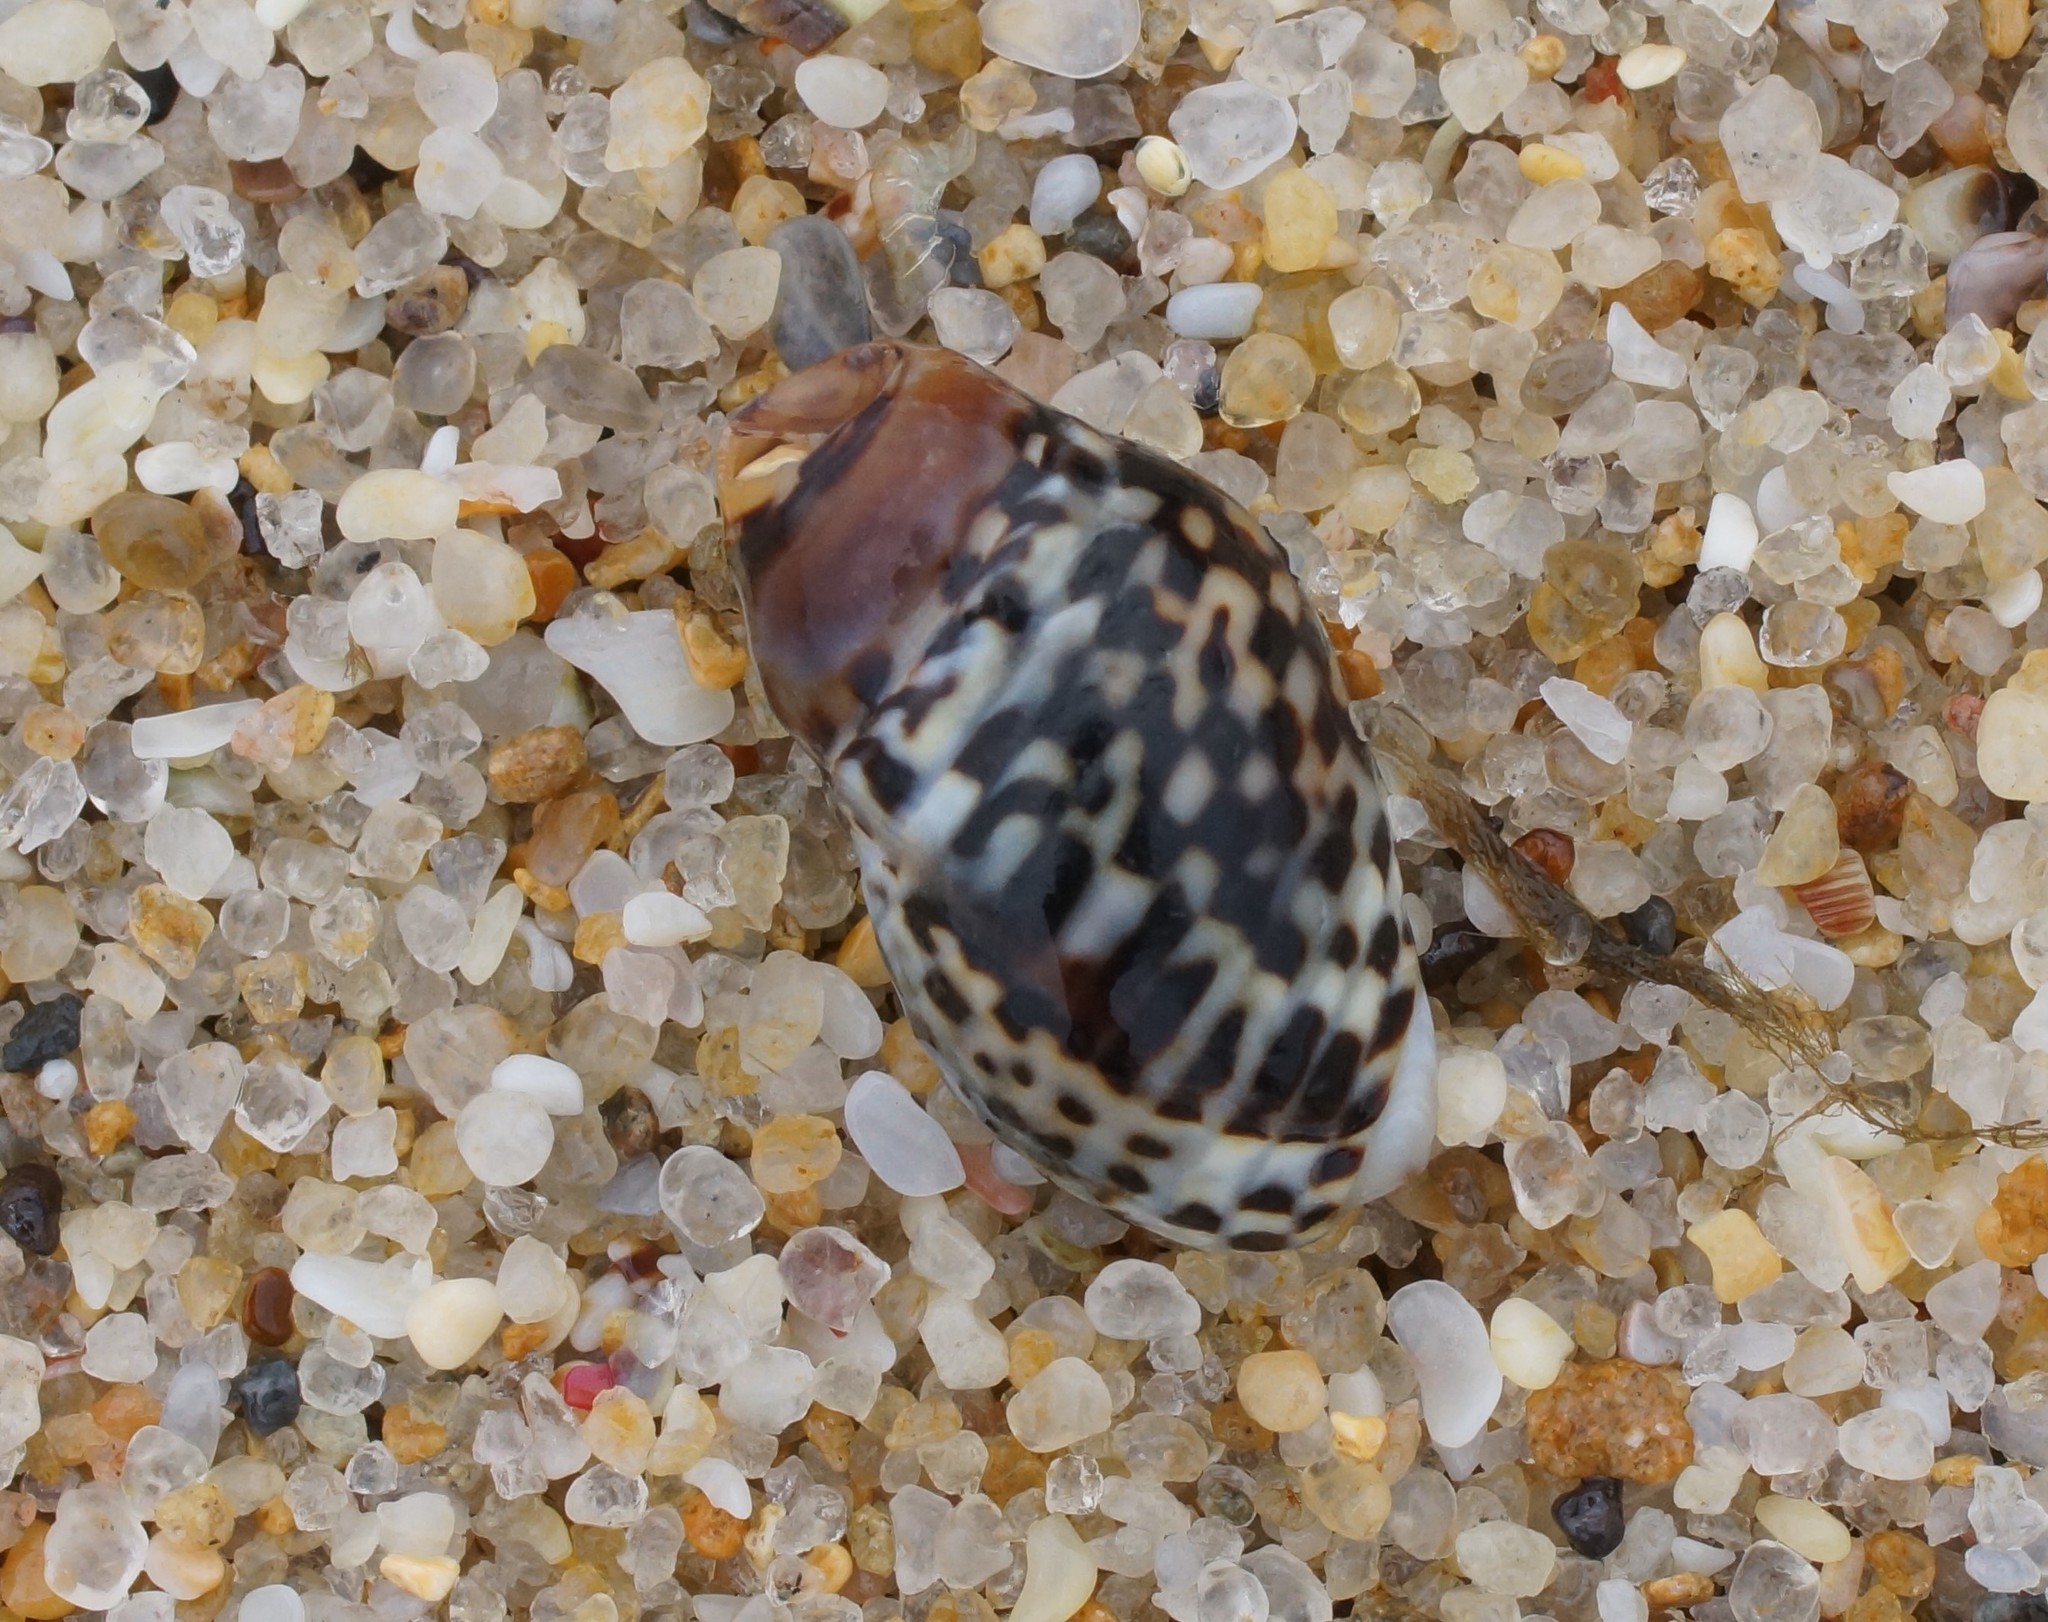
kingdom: Animalia
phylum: Mollusca
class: Gastropoda
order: Neogastropoda
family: Cominellidae
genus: Cominella
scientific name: Cominella lineolata
